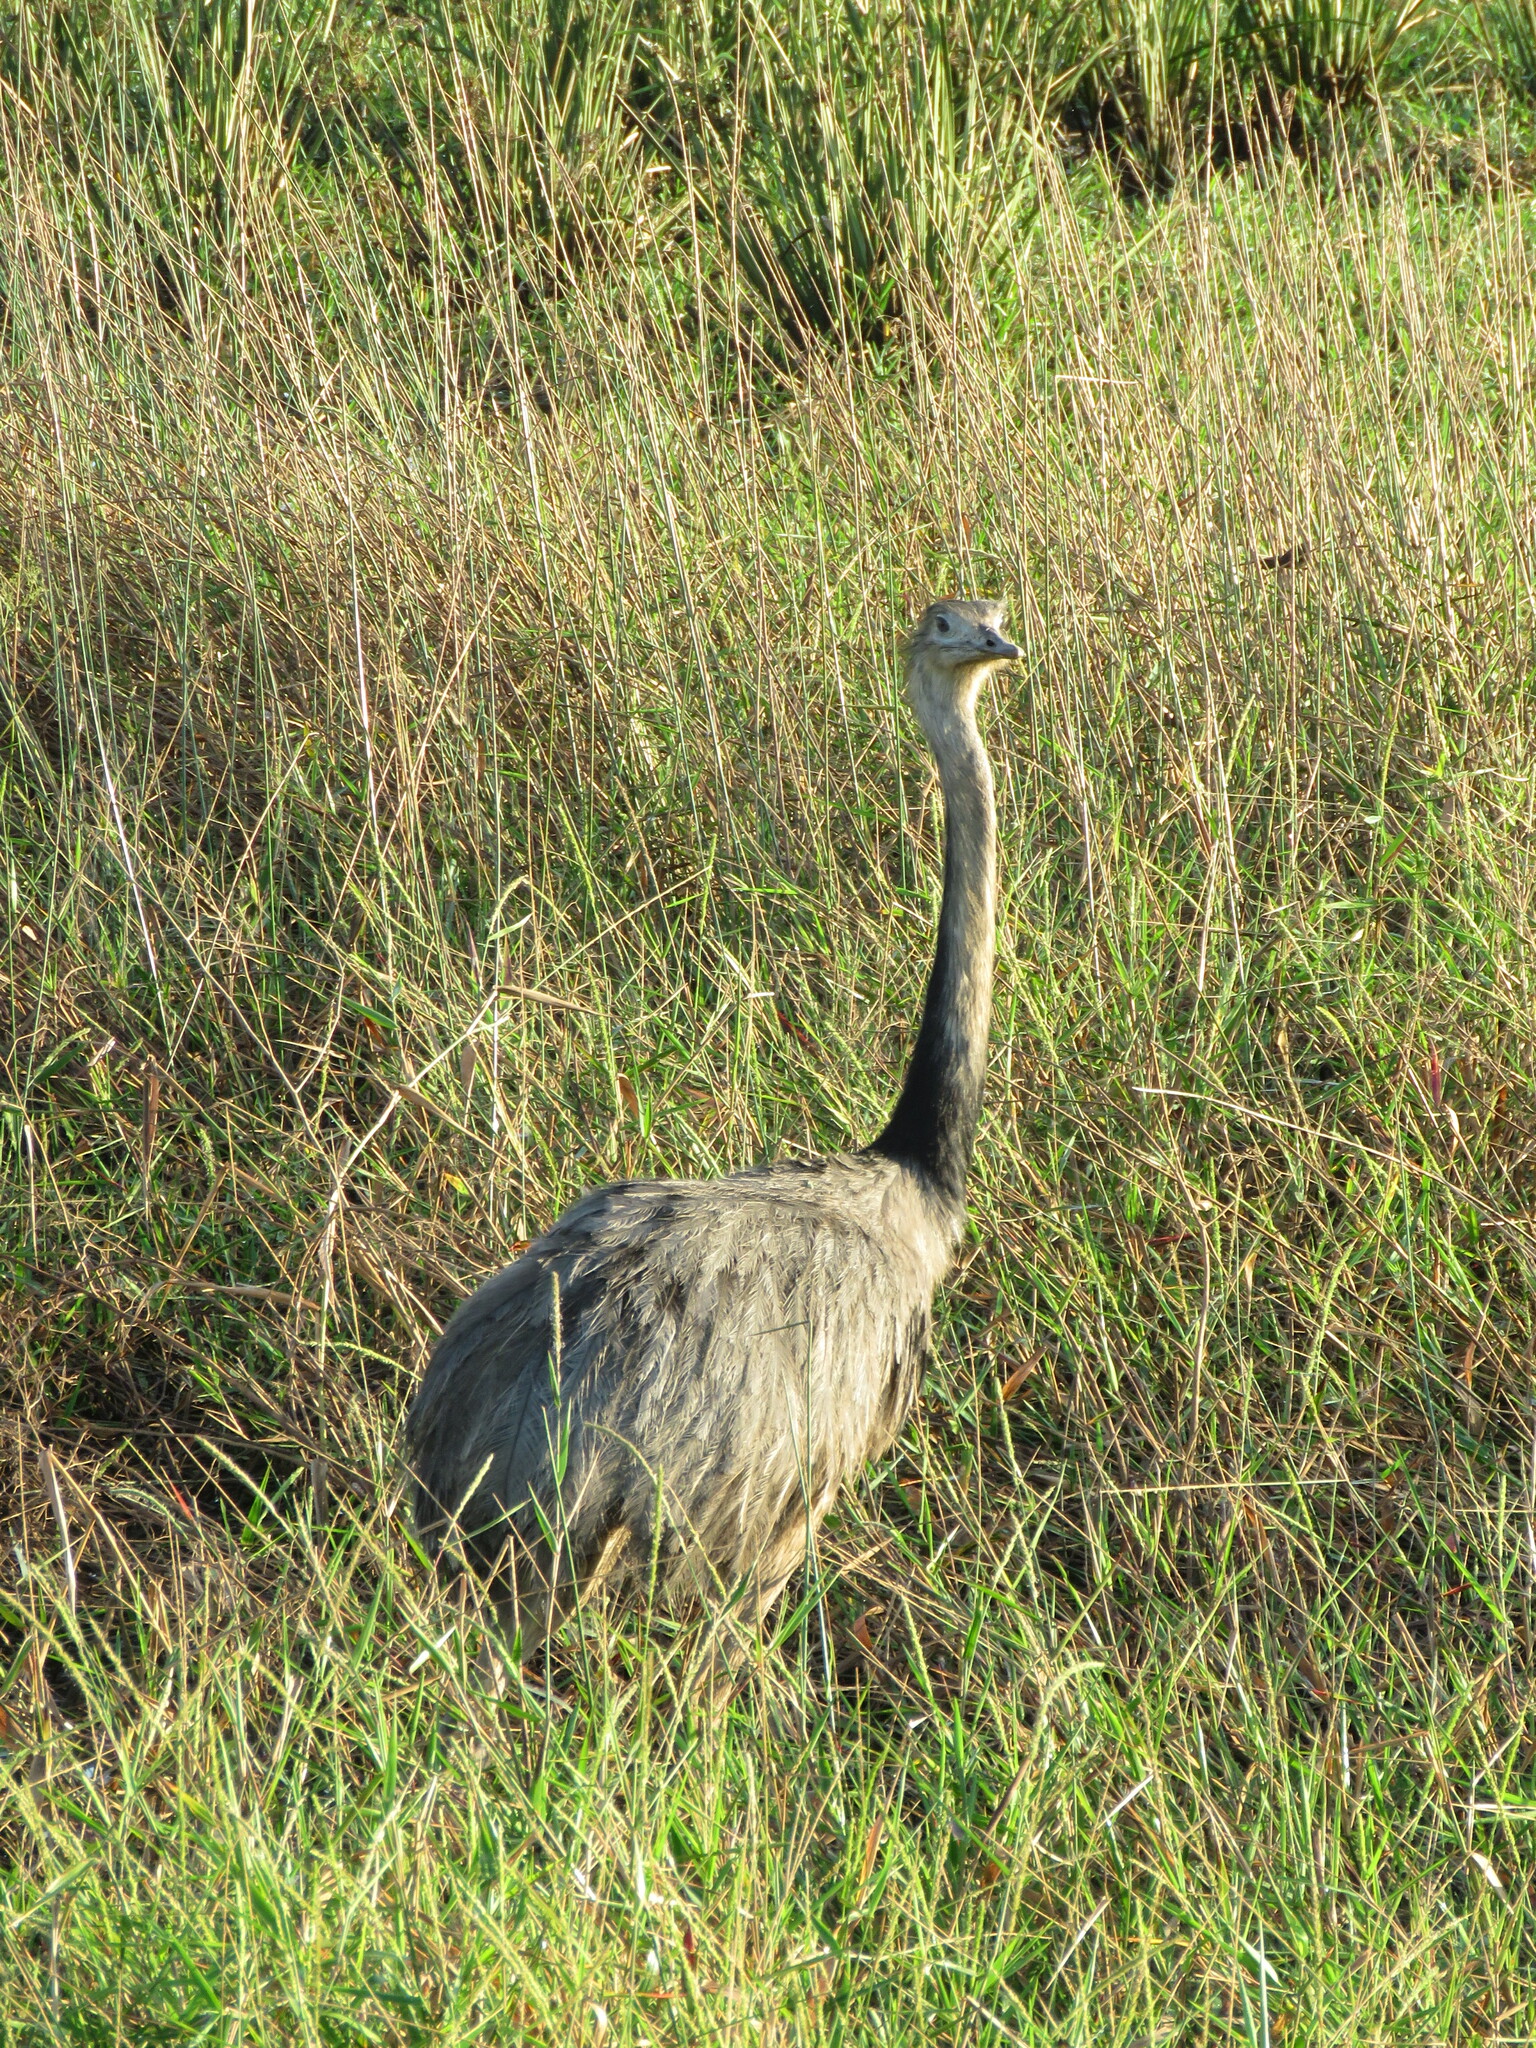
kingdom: Animalia
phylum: Chordata
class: Aves
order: Rheiformes
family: Rheidae
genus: Rhea
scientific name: Rhea americana
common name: Greater rhea
